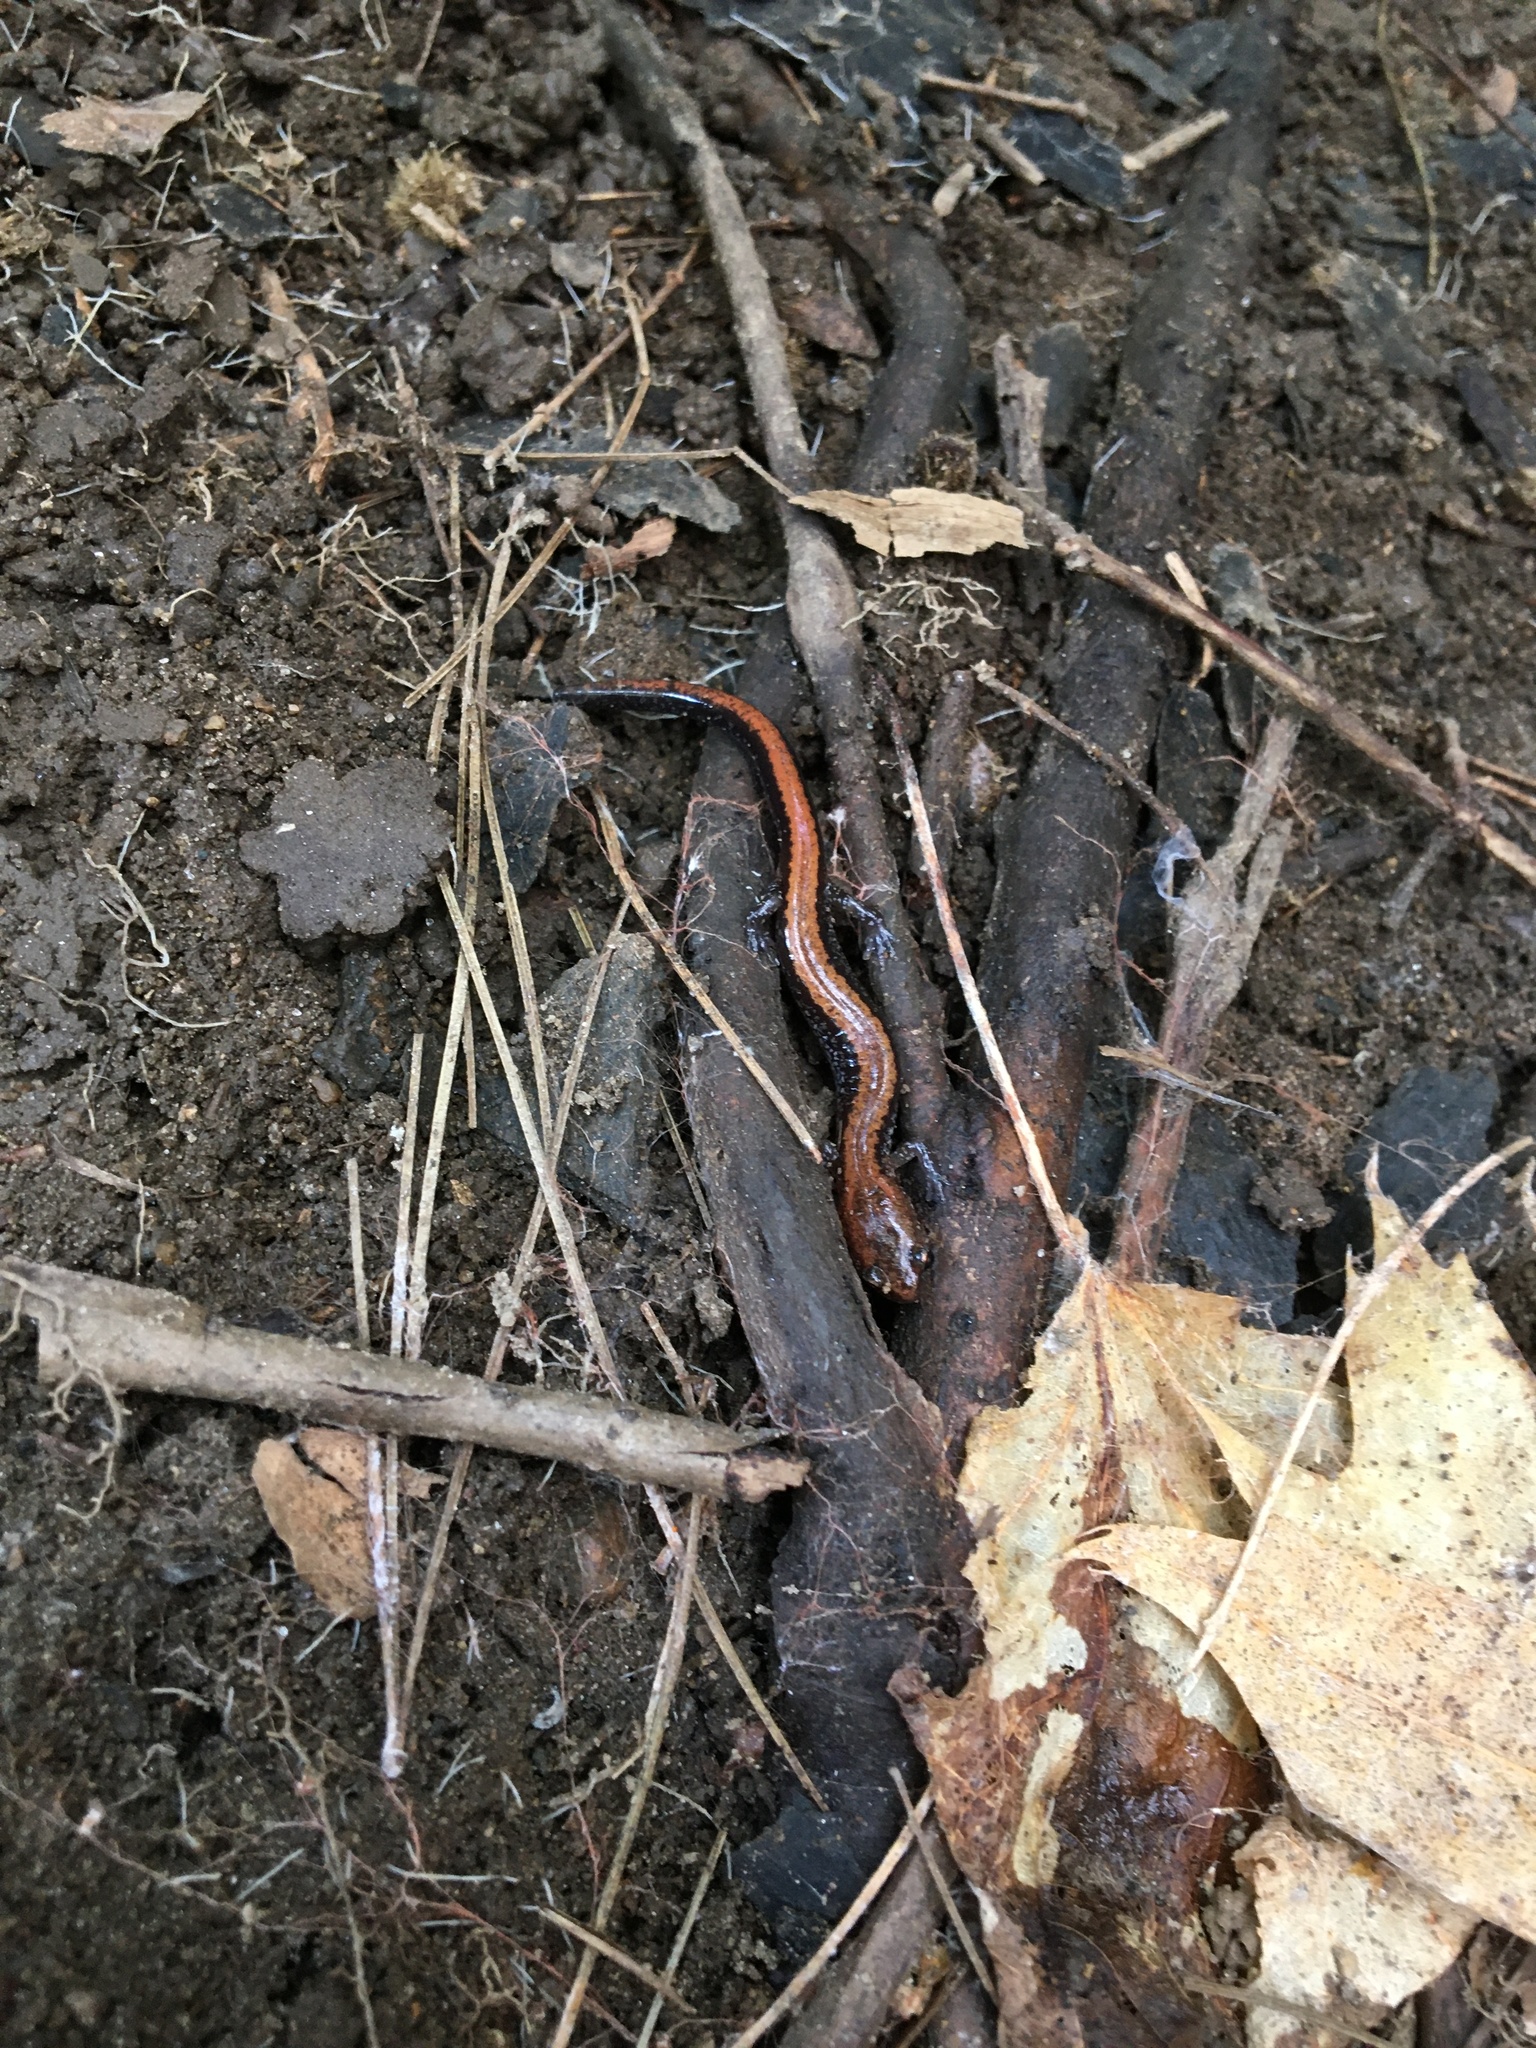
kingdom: Animalia
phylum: Chordata
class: Amphibia
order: Caudata
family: Plethodontidae
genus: Plethodon
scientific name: Plethodon cinereus
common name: Redback salamander
